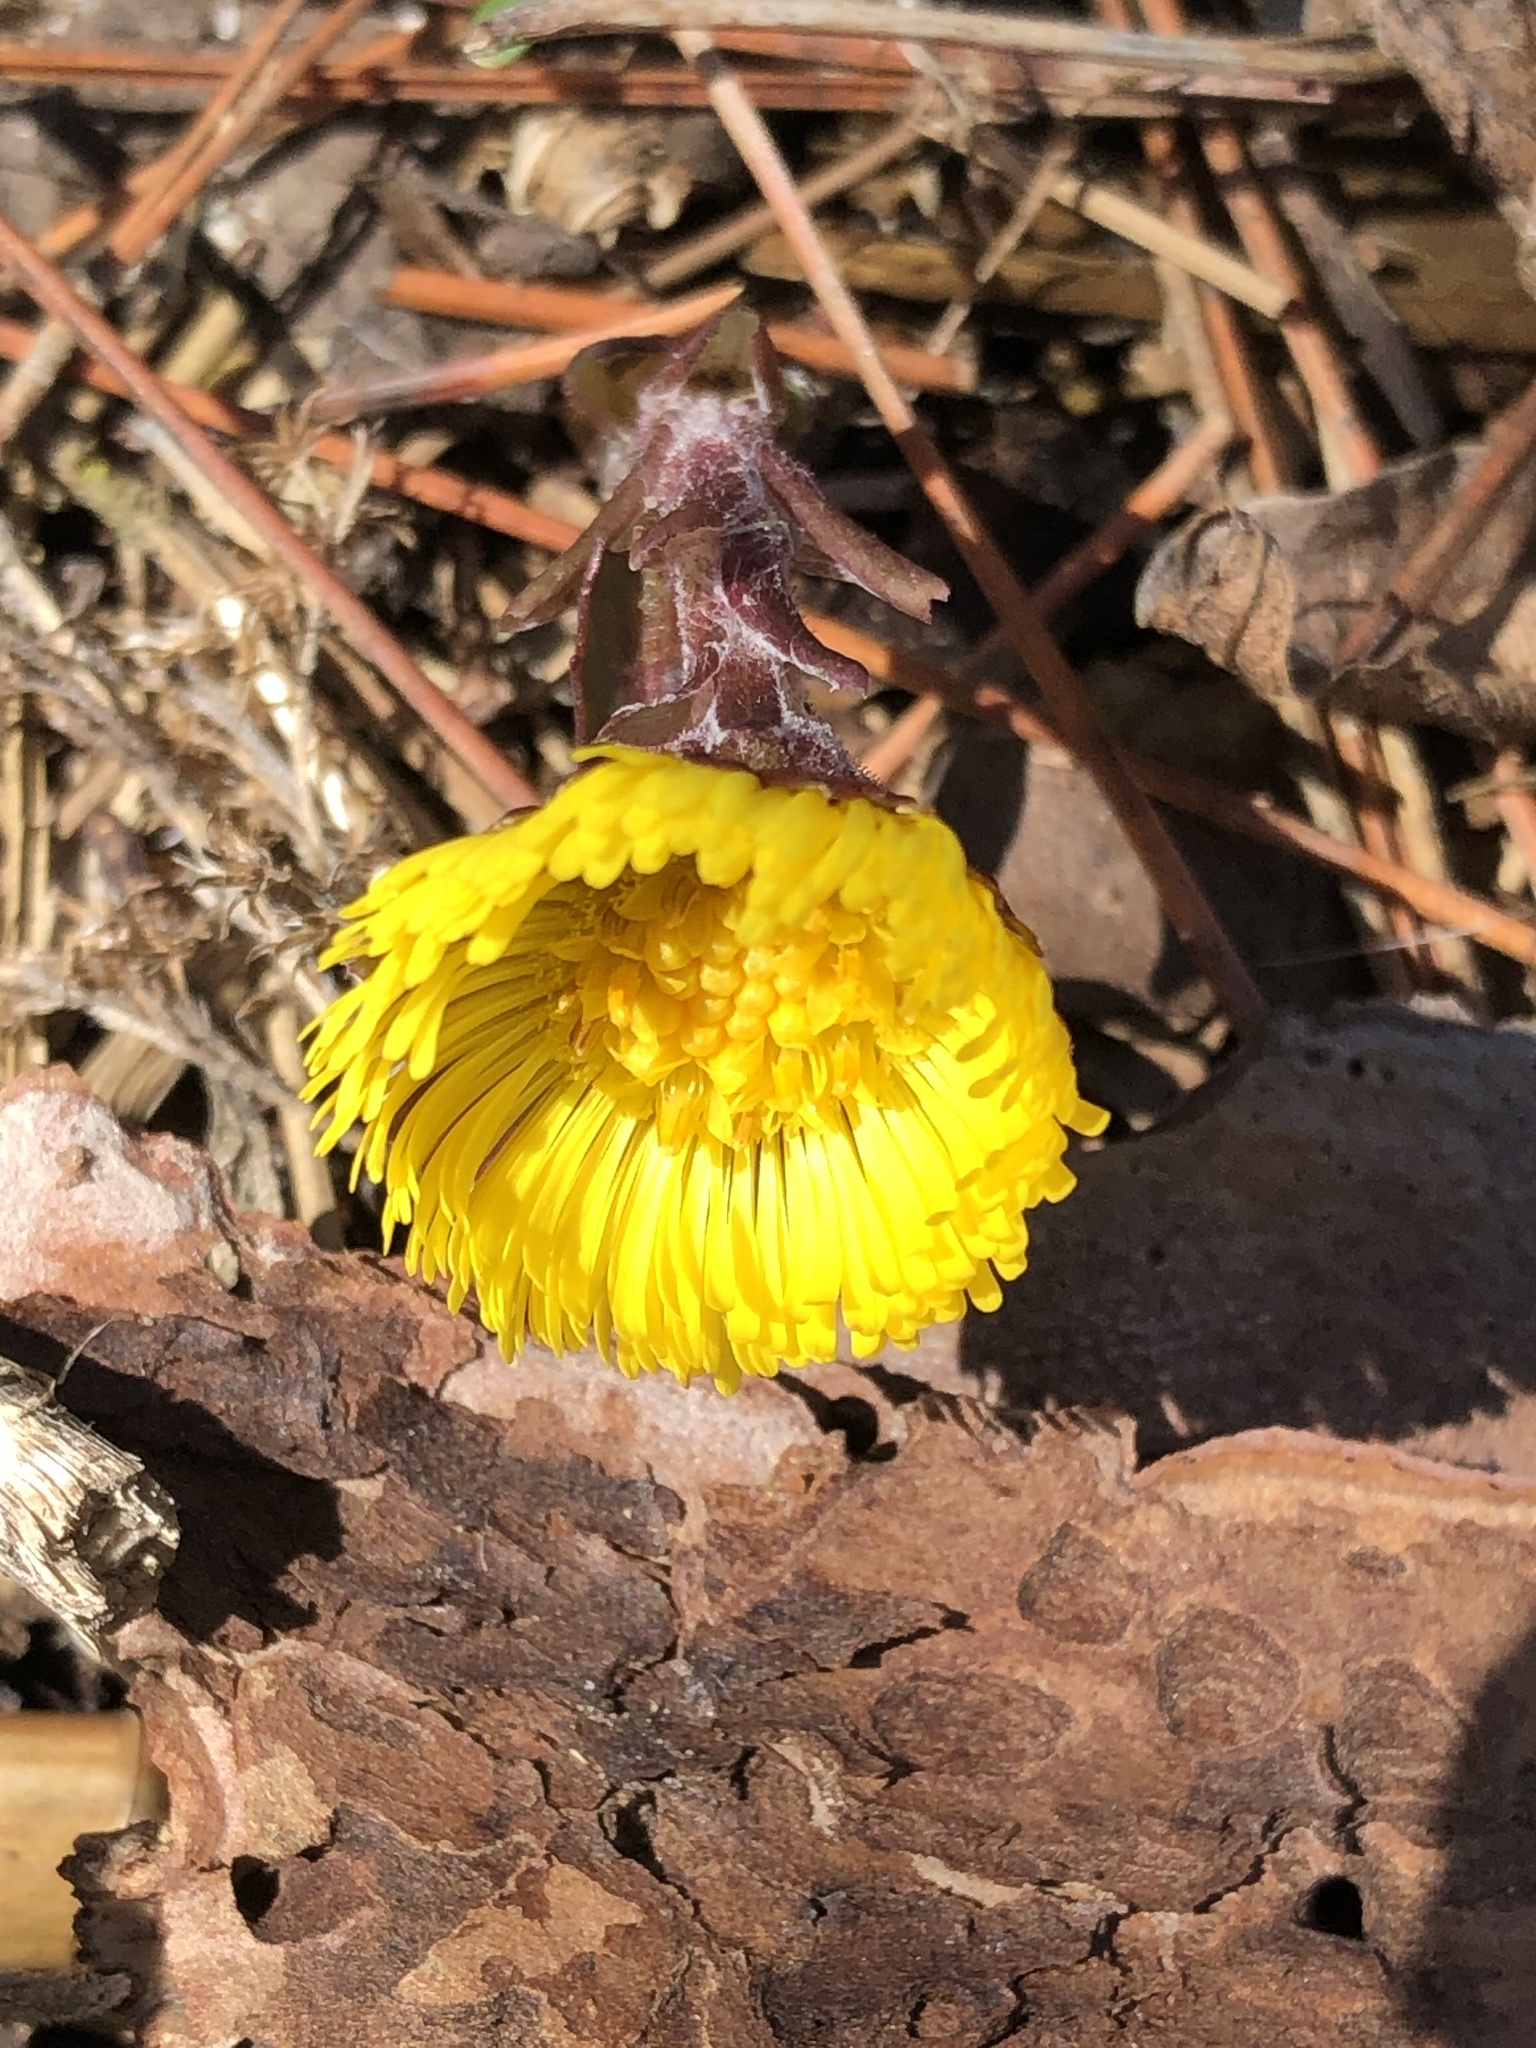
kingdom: Plantae
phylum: Tracheophyta
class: Magnoliopsida
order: Asterales
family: Asteraceae
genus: Tussilago
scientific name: Tussilago farfara
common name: Coltsfoot
